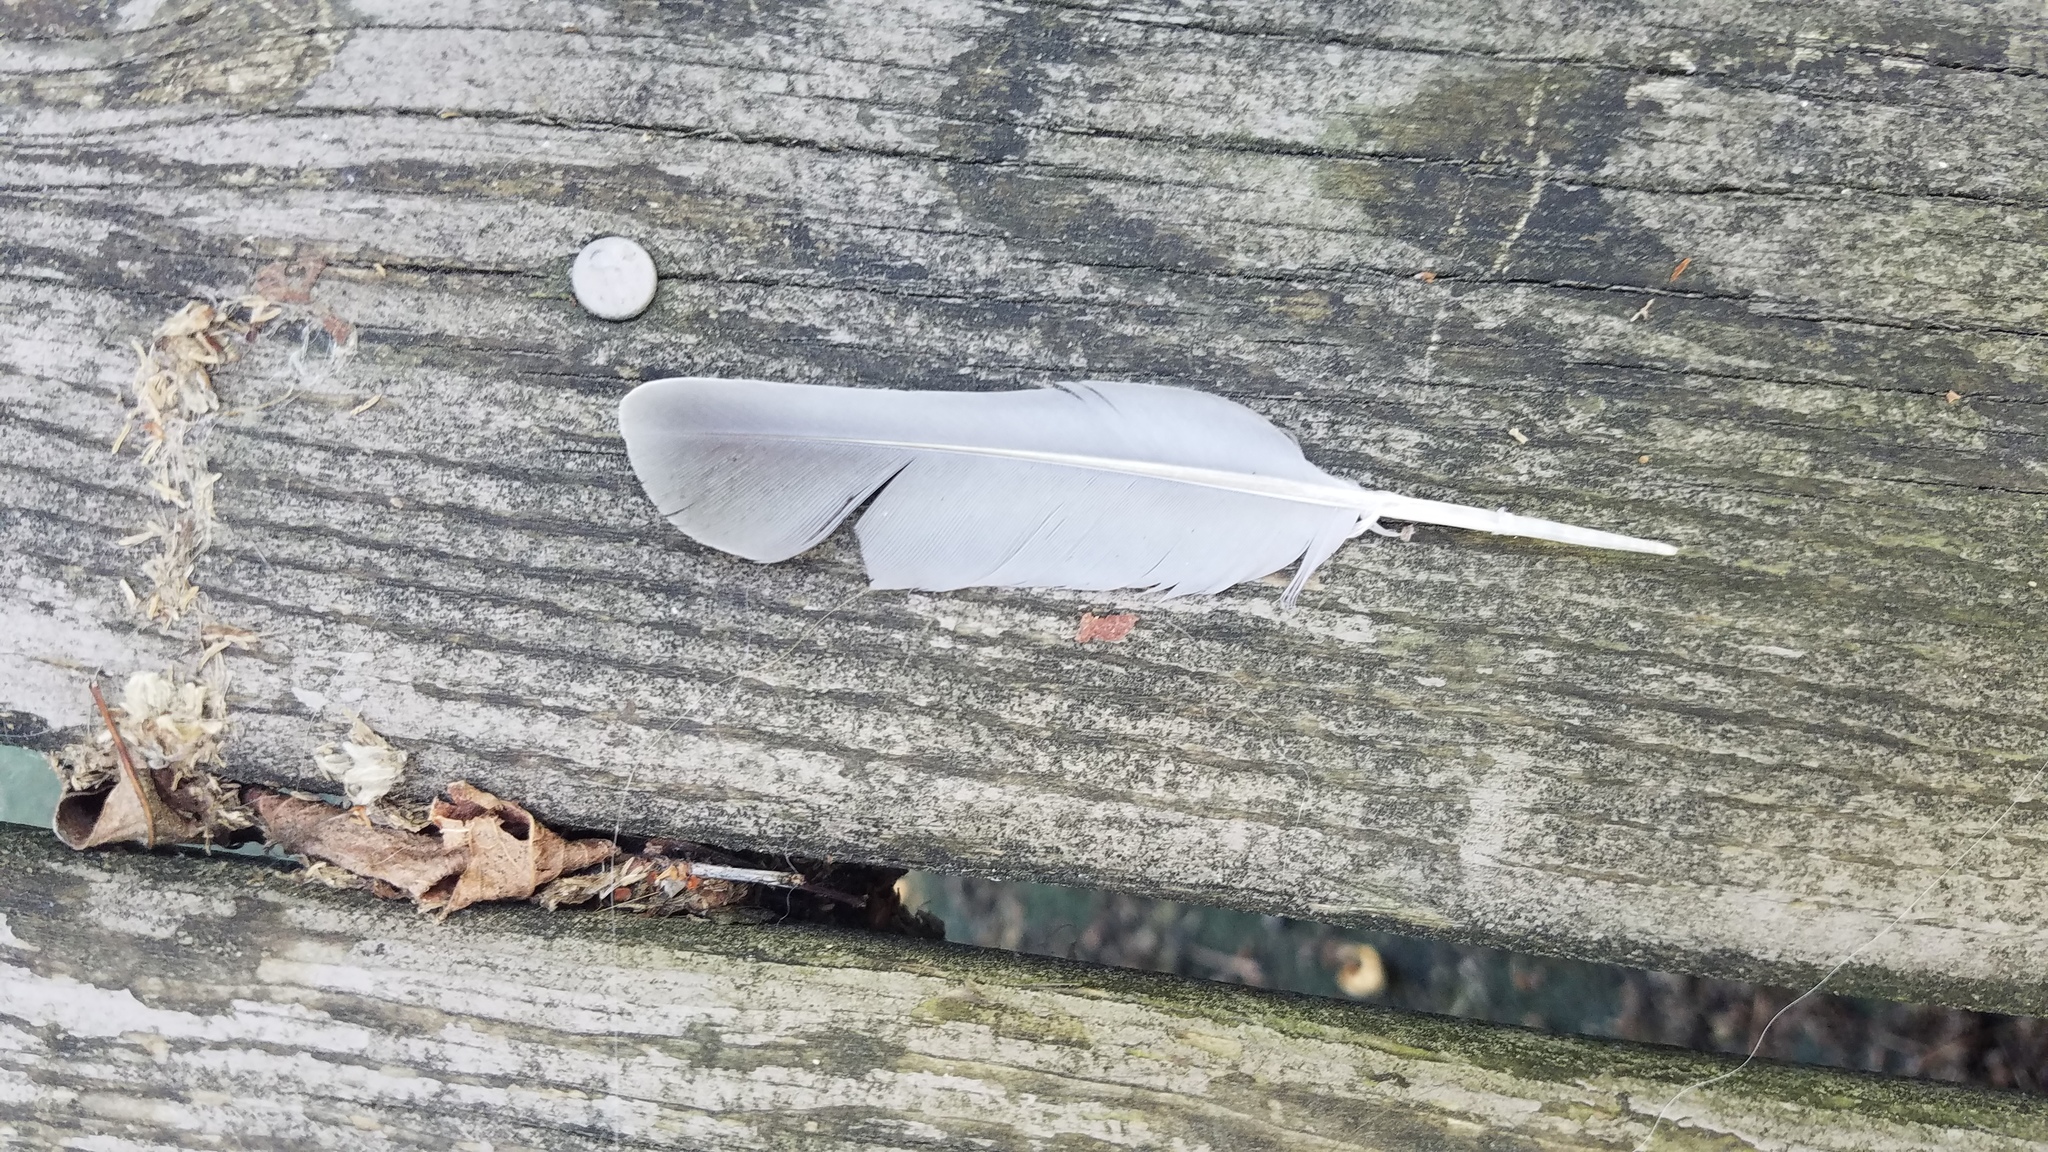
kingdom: Animalia
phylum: Chordata
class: Aves
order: Columbiformes
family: Columbidae
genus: Zenaida
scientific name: Zenaida macroura
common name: Mourning dove
